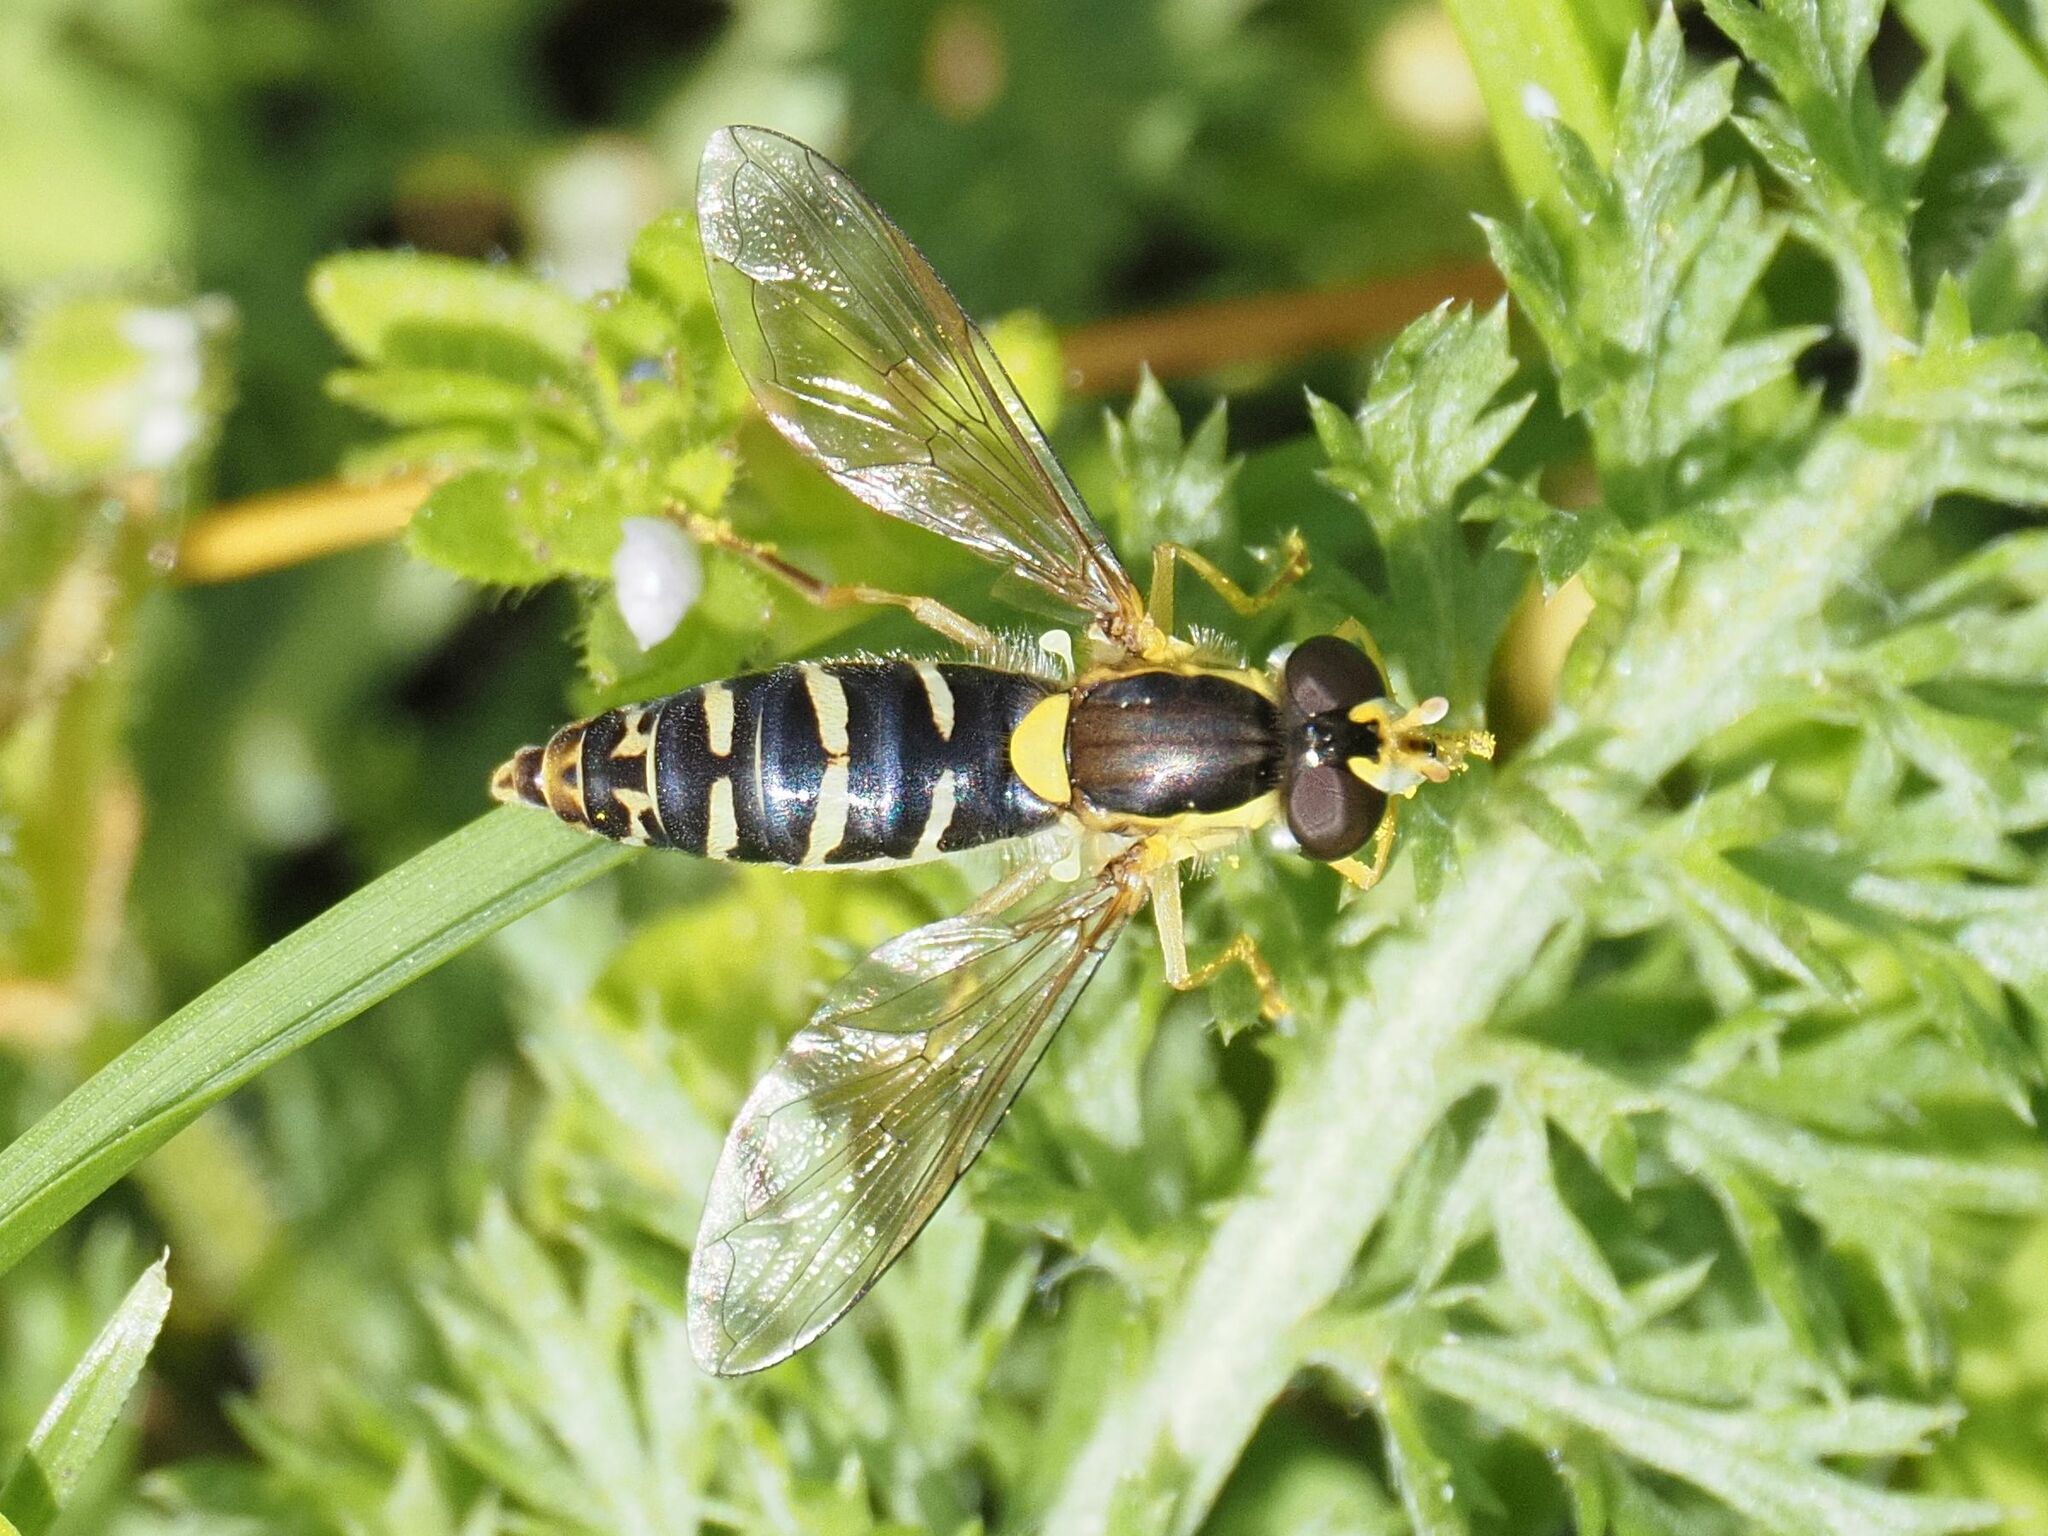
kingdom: Animalia
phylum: Arthropoda
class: Insecta
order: Diptera
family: Syrphidae
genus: Sphaerophoria
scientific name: Sphaerophoria
